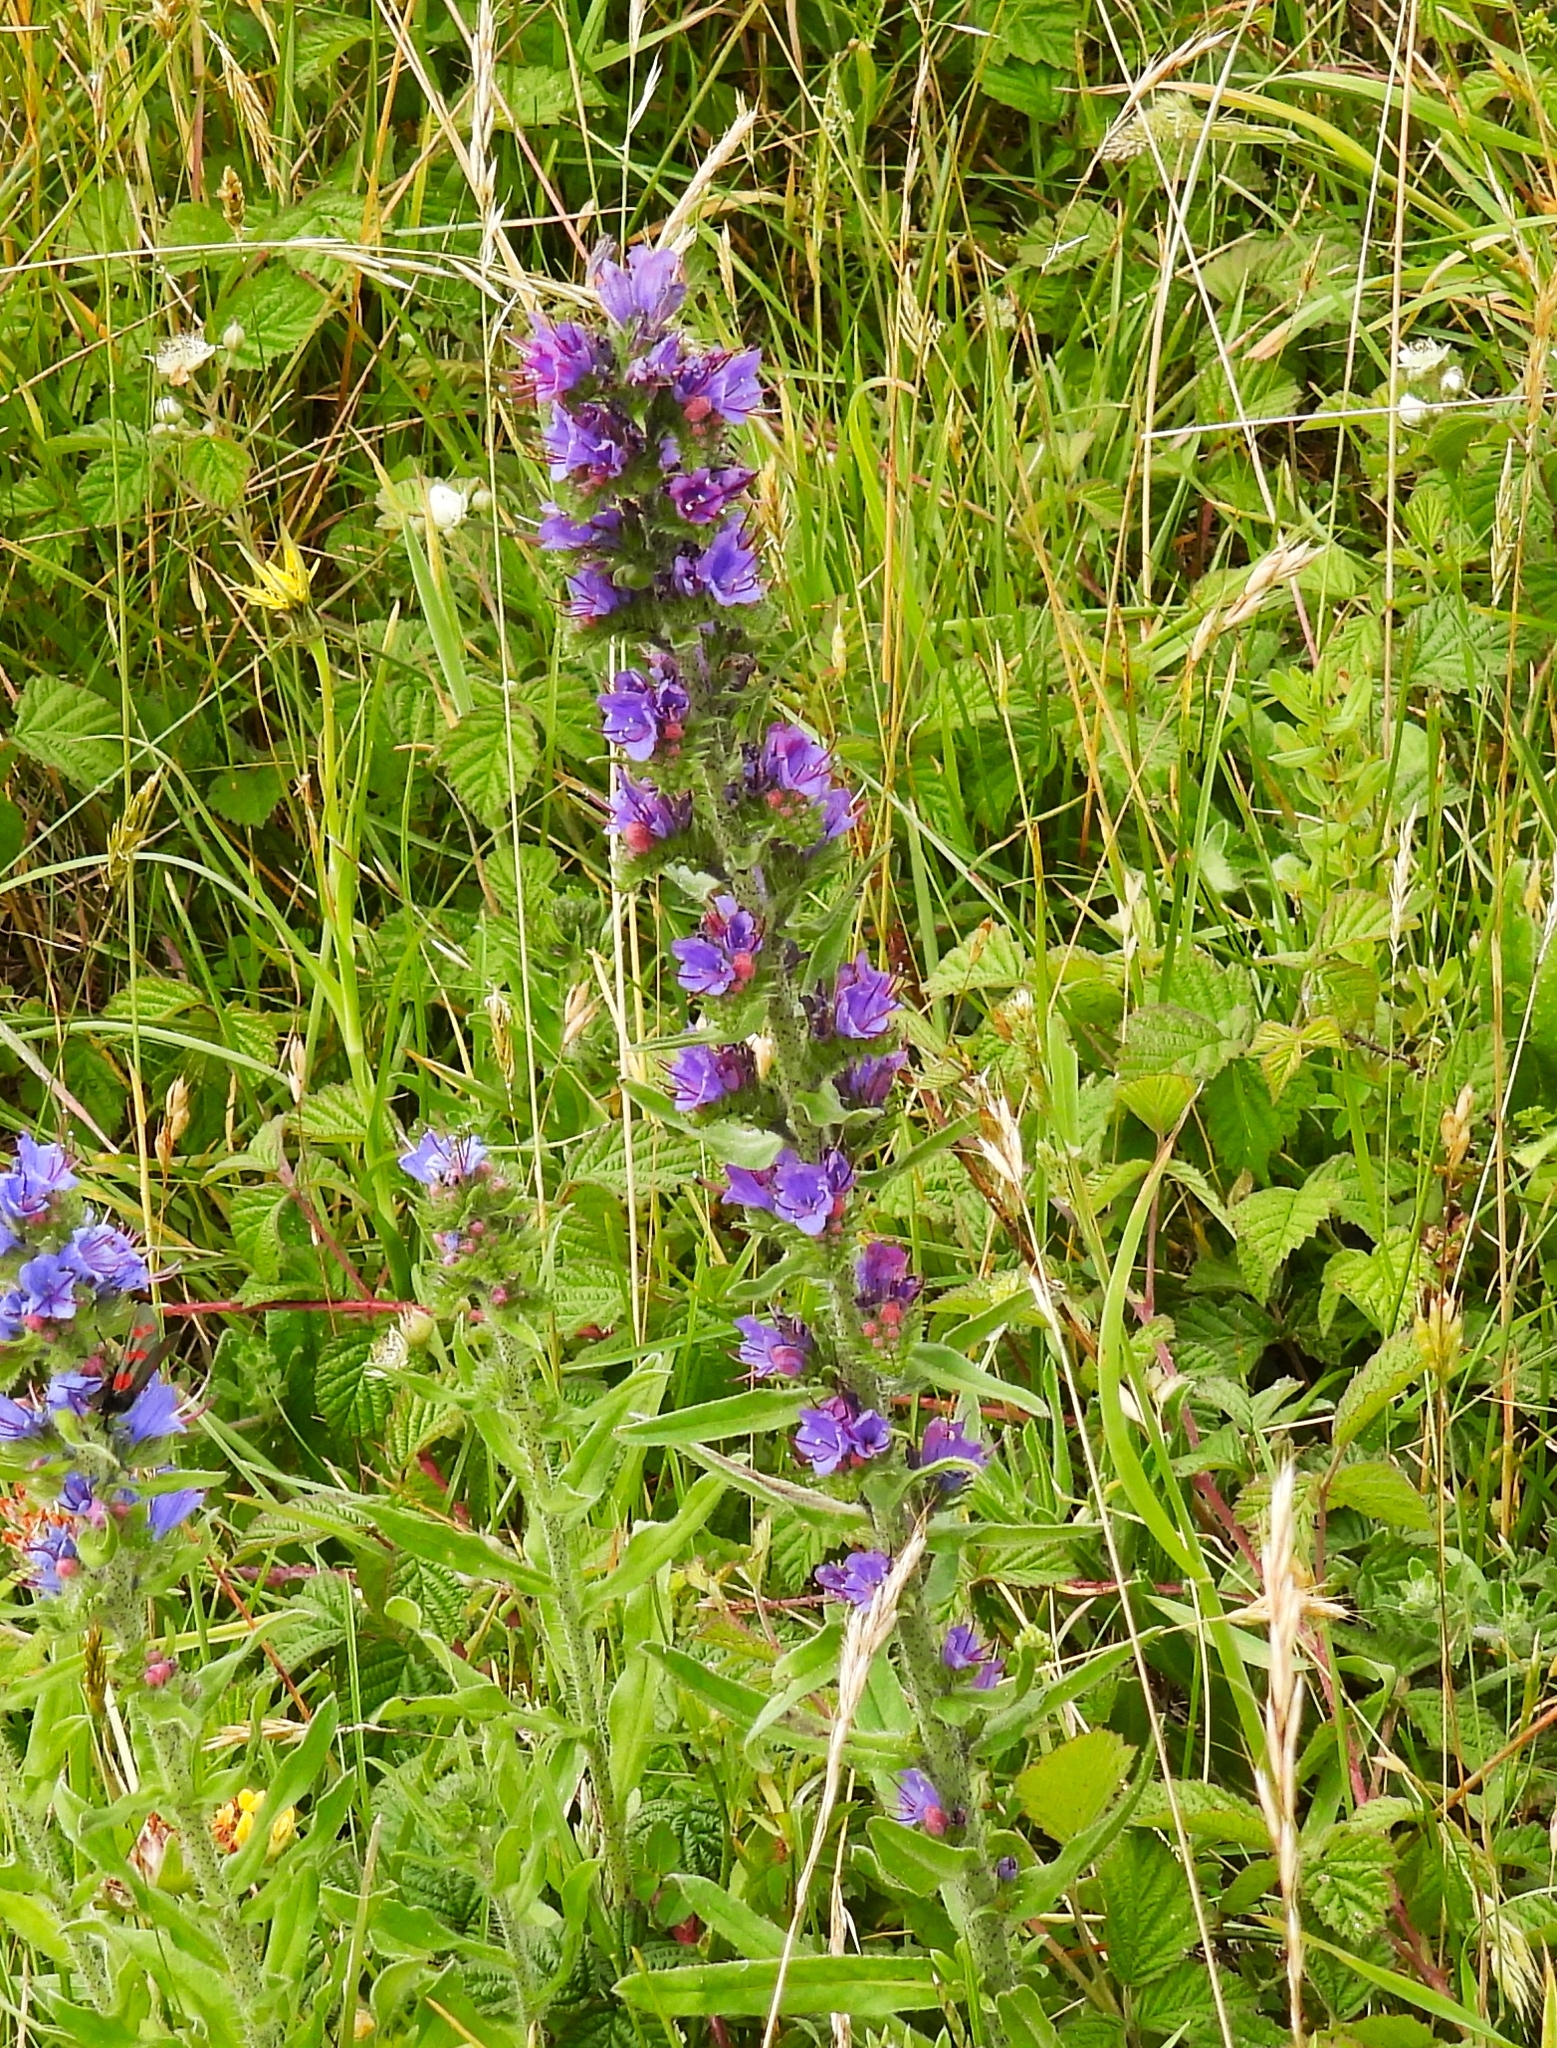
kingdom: Plantae
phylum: Tracheophyta
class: Magnoliopsida
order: Boraginales
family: Boraginaceae
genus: Echium
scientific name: Echium vulgare
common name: Common viper's bugloss
